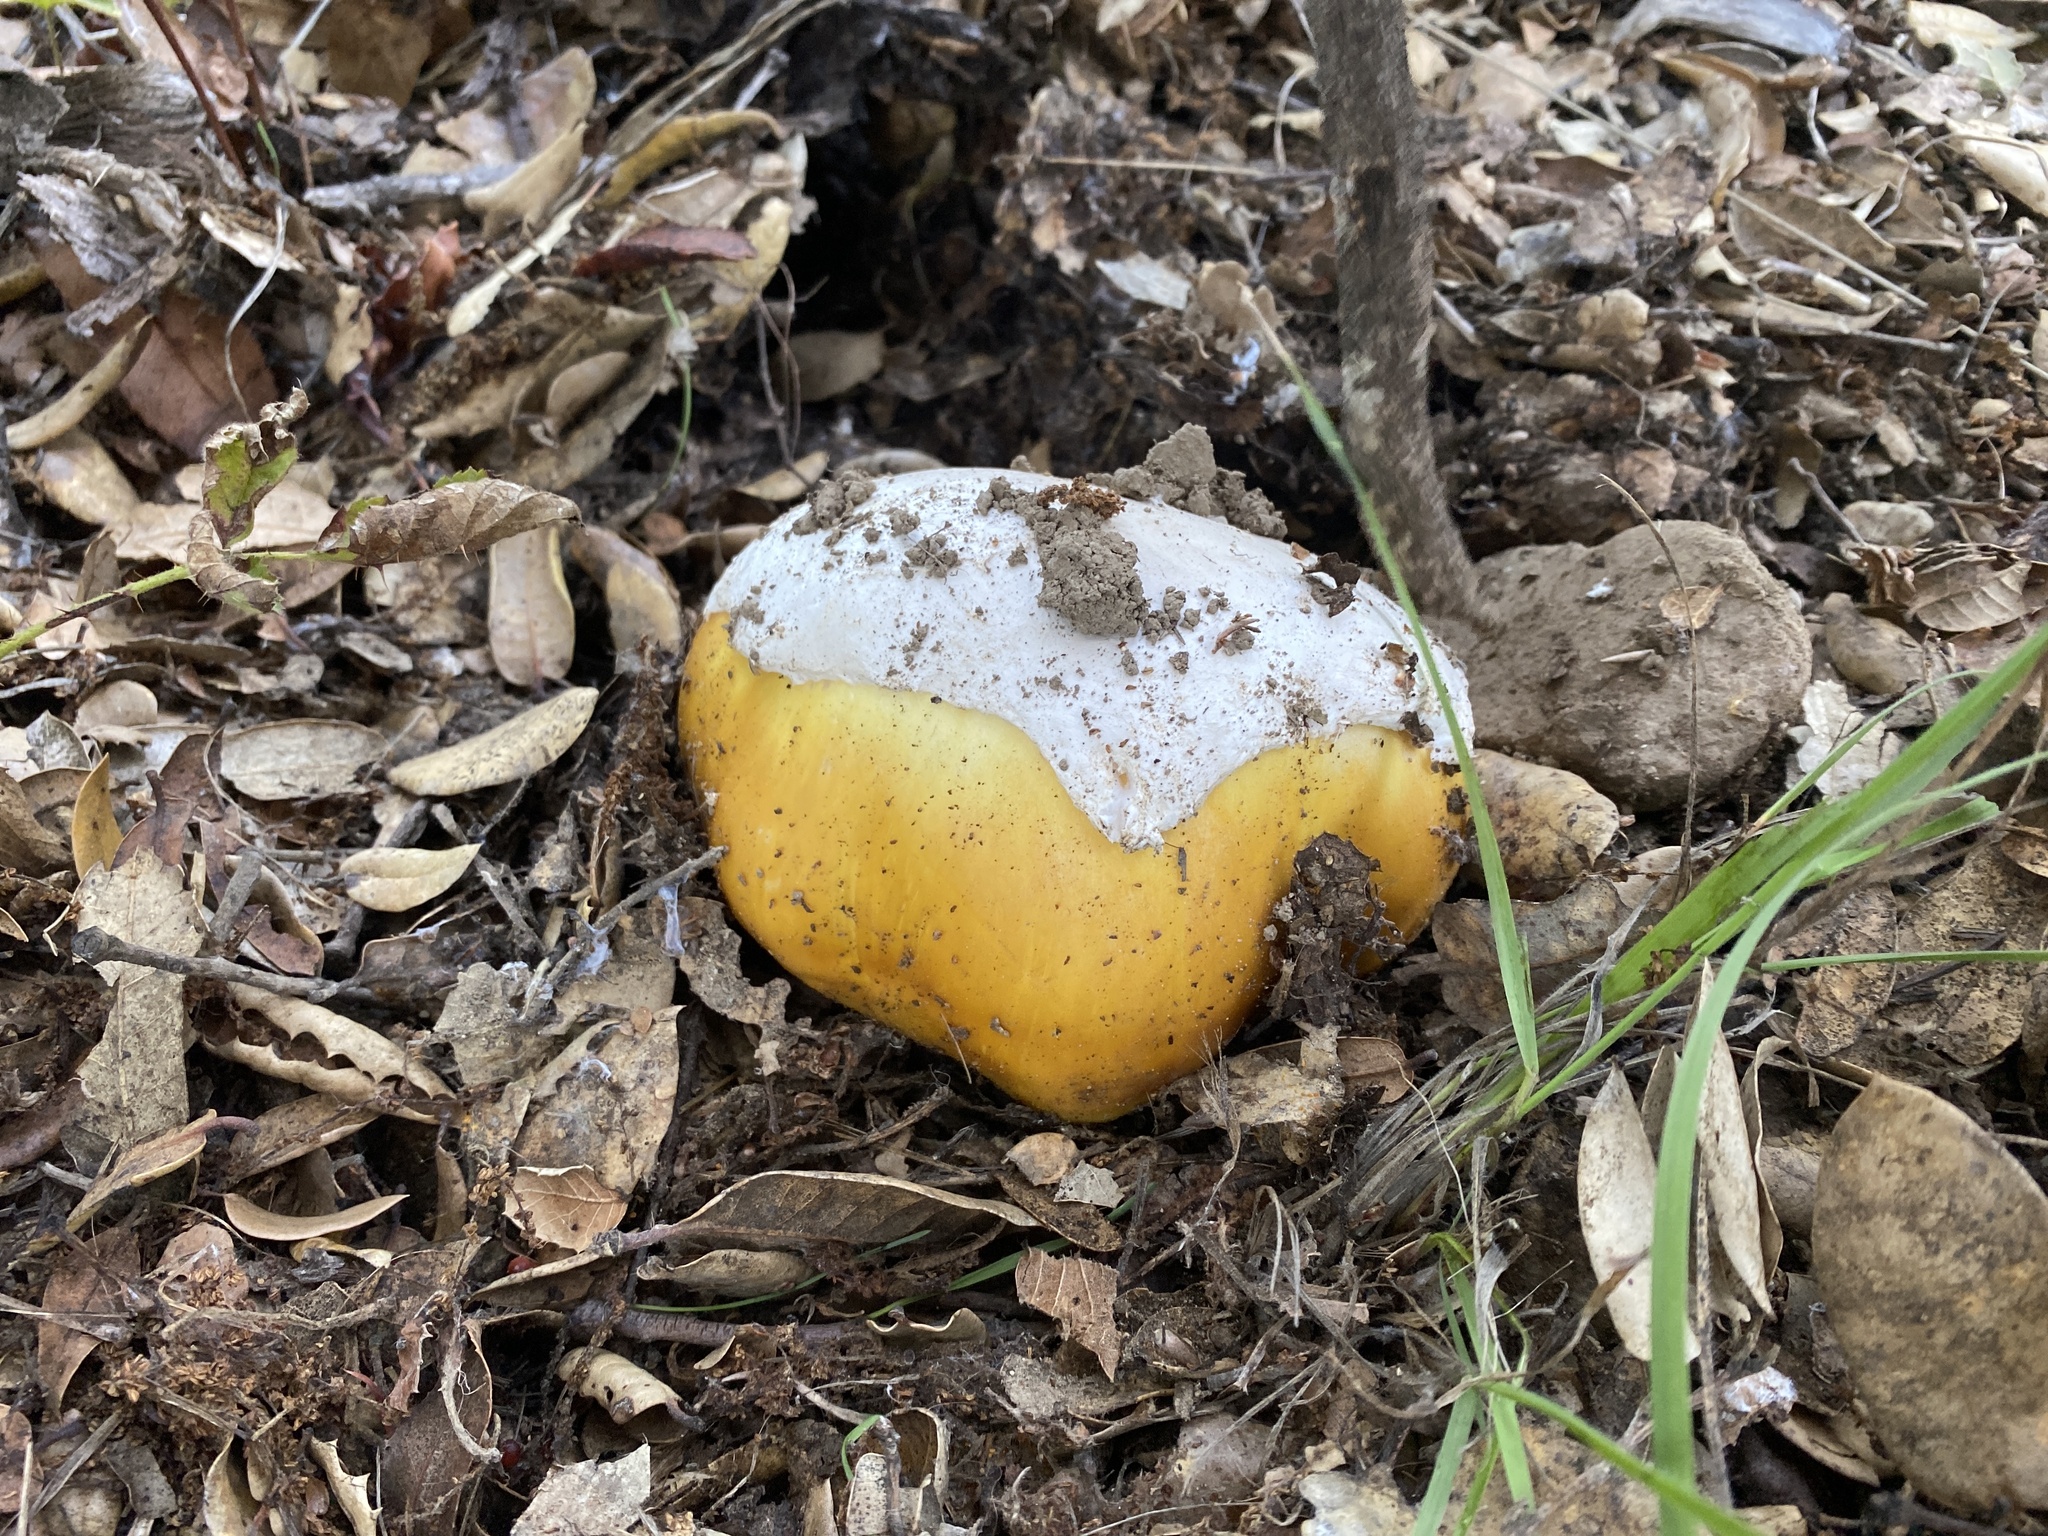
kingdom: Fungi
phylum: Basidiomycota
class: Agaricomycetes
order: Agaricales
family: Amanitaceae
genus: Amanita
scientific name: Amanita calyptroderma
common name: Coccora
